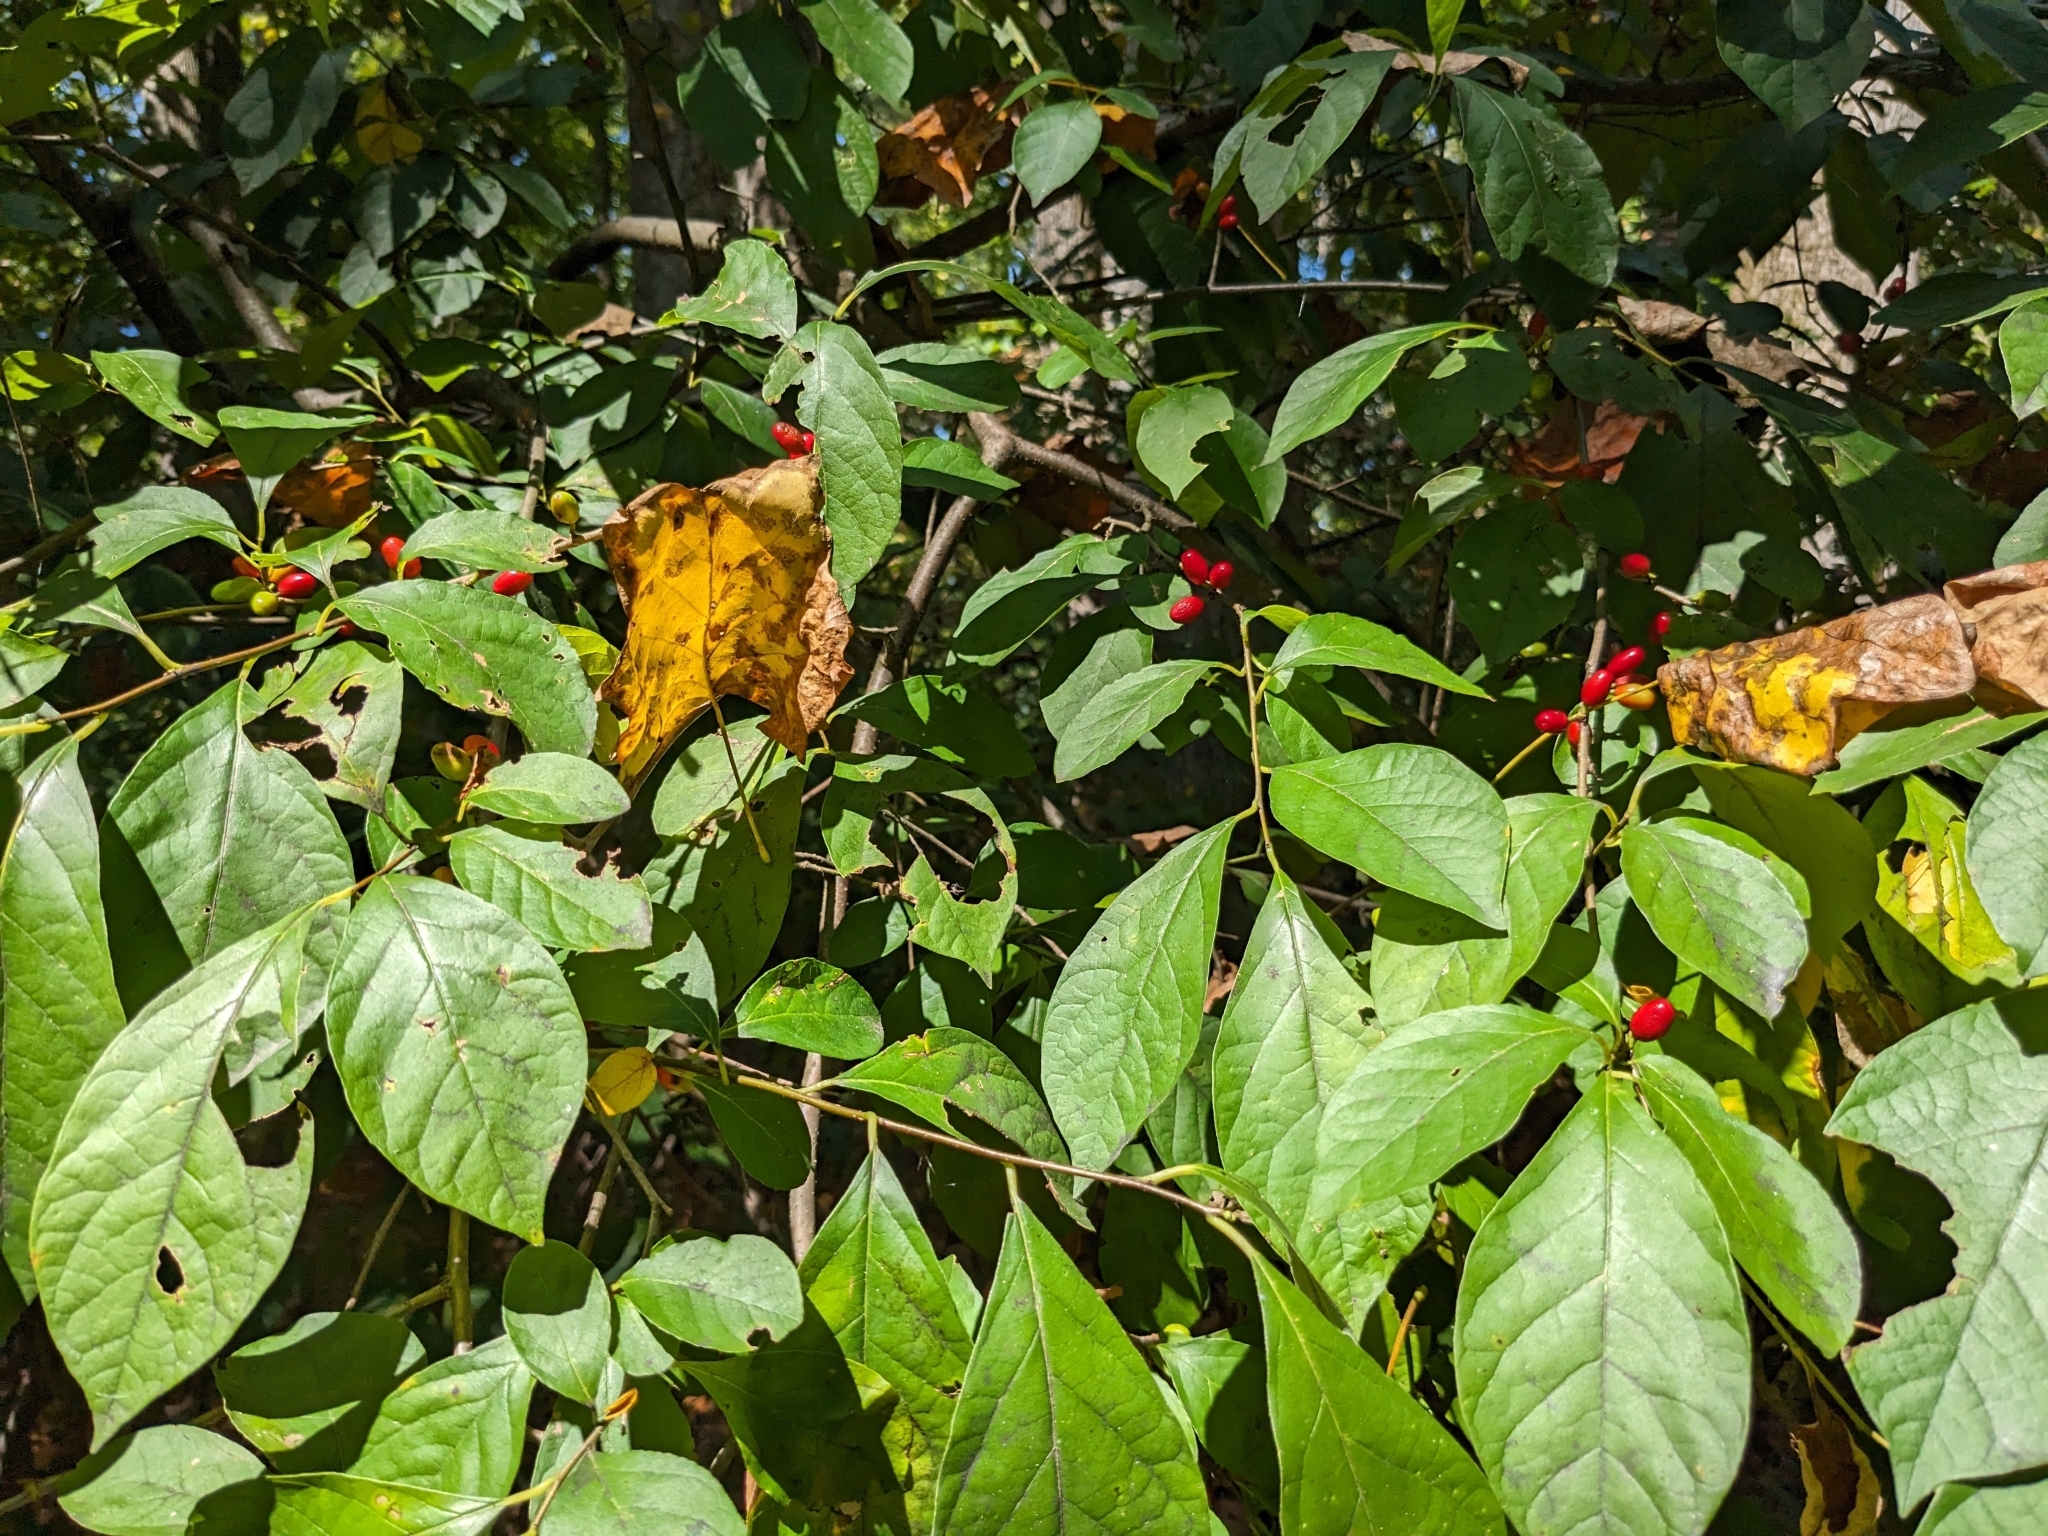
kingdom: Plantae
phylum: Tracheophyta
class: Magnoliopsida
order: Laurales
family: Lauraceae
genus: Lindera
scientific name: Lindera benzoin
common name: Spicebush
